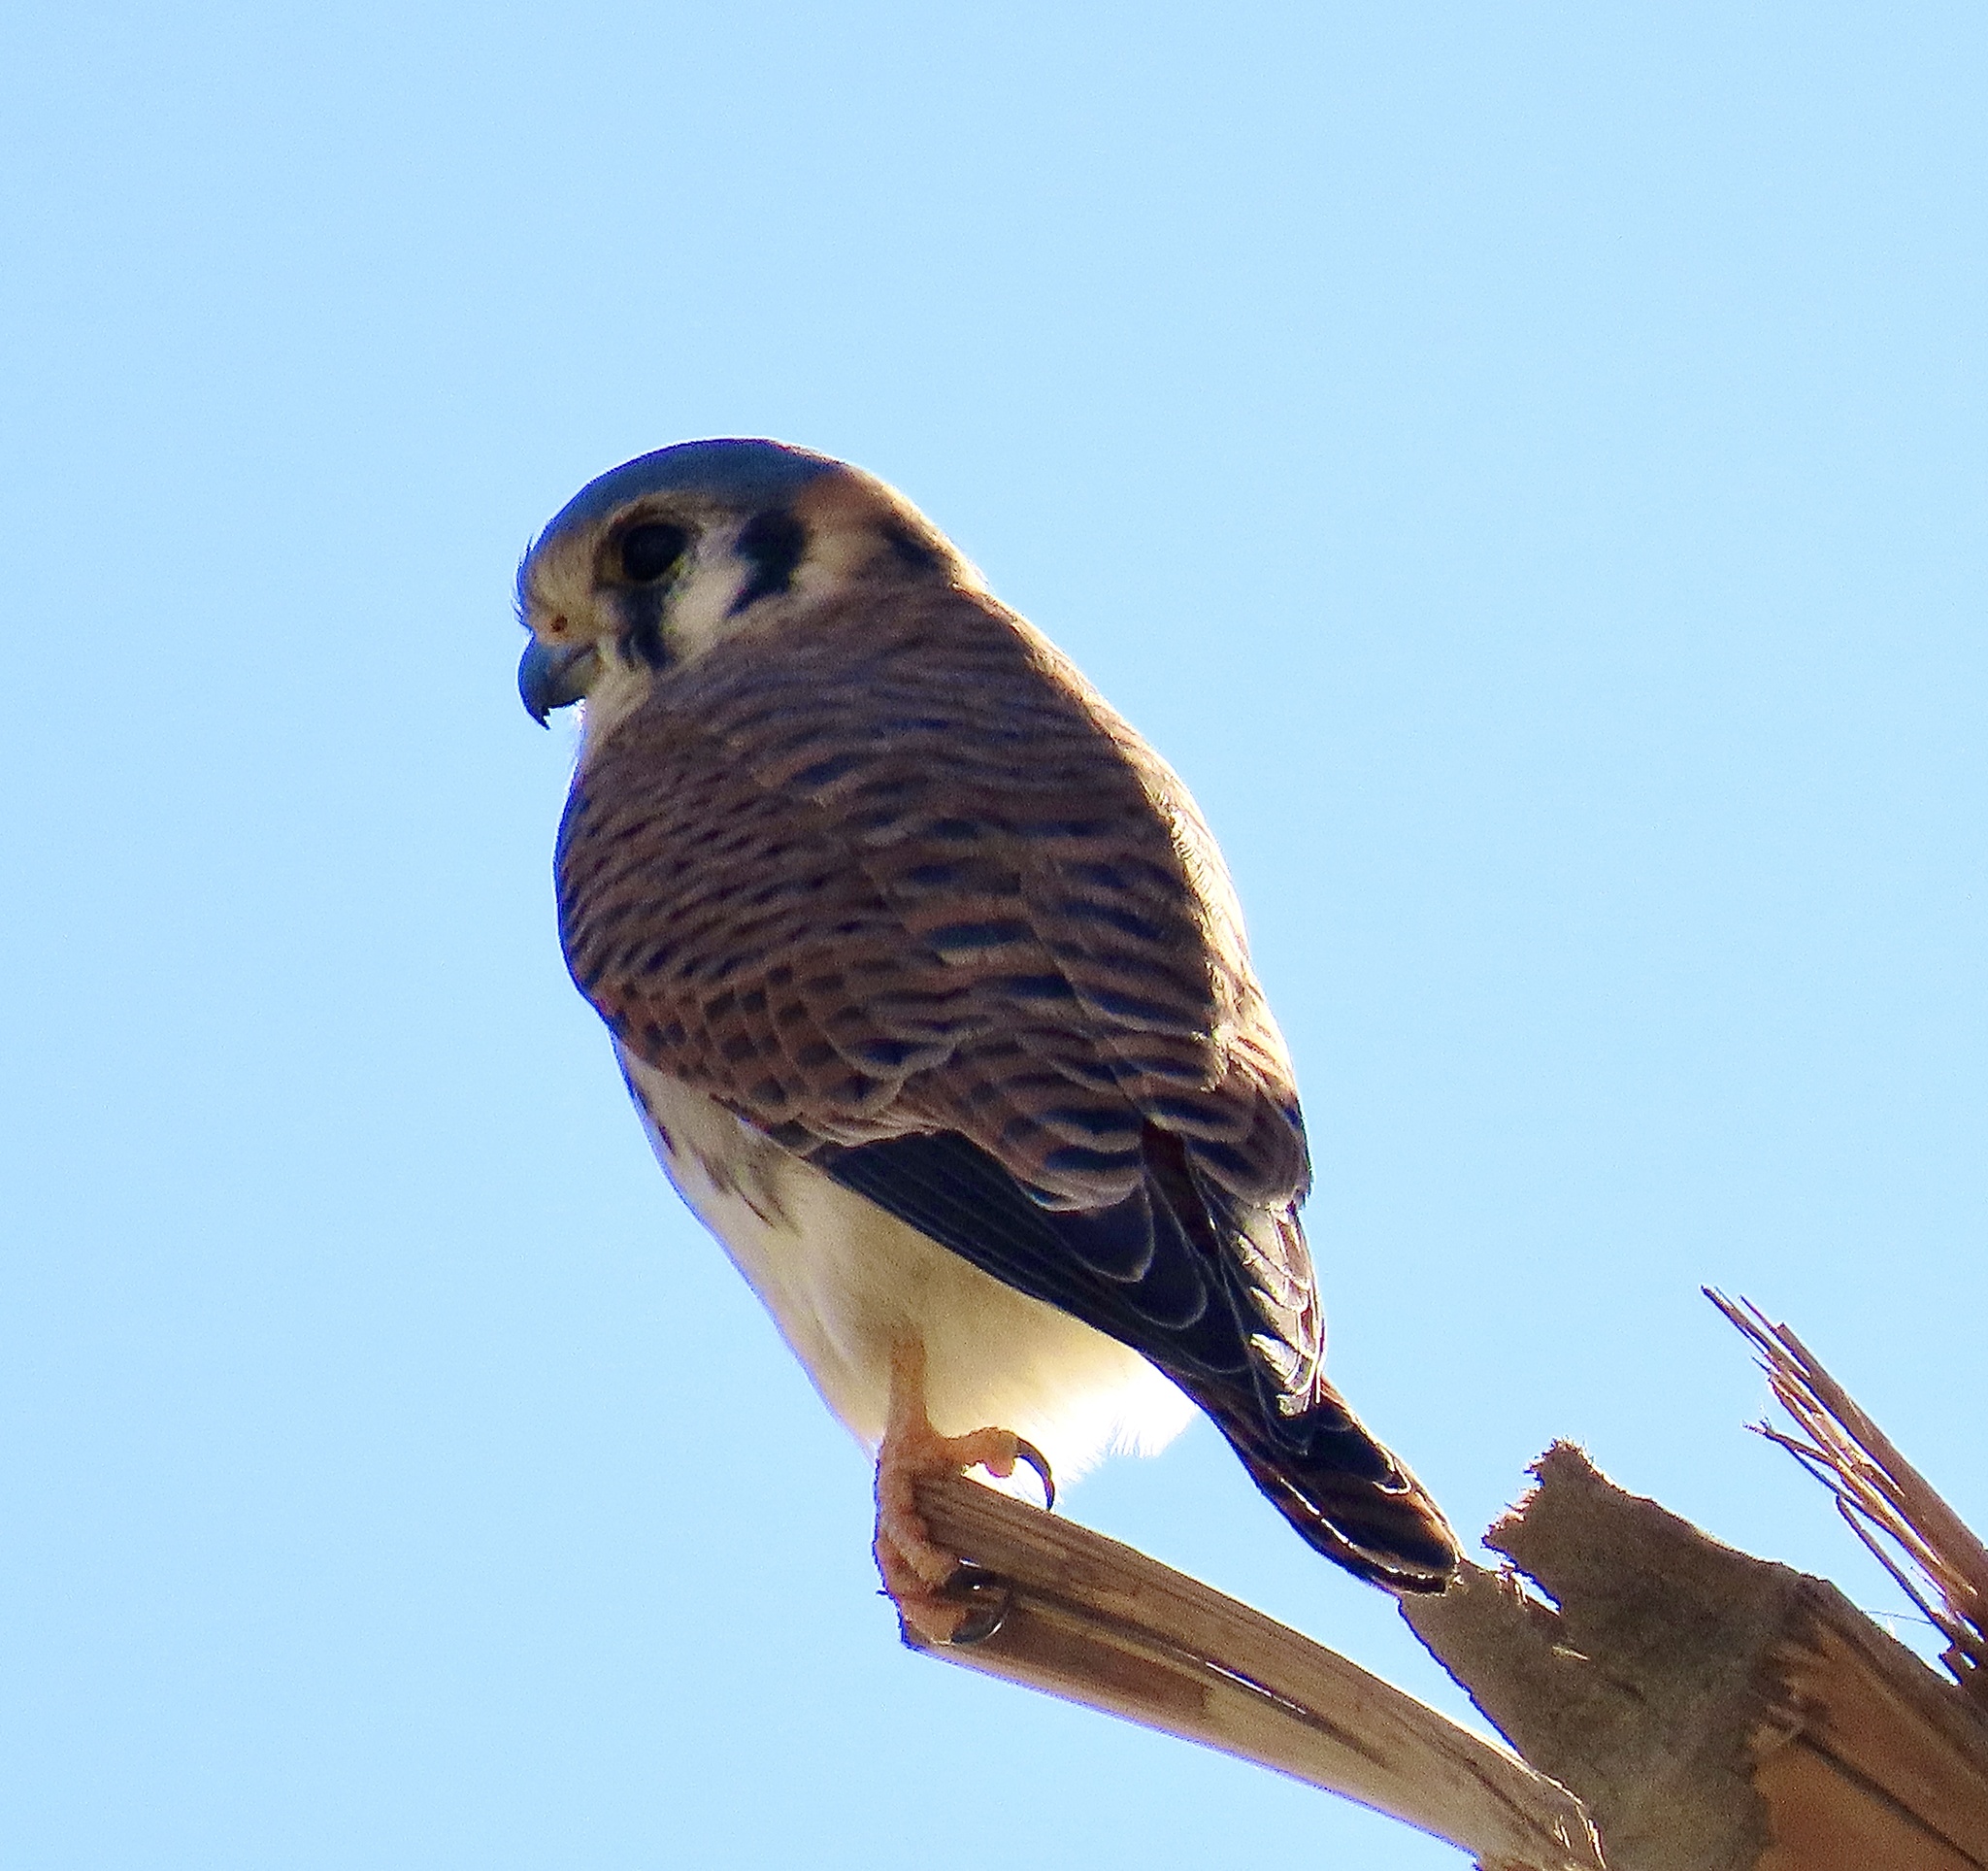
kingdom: Animalia
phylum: Chordata
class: Aves
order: Falconiformes
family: Falconidae
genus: Falco
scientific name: Falco sparverius
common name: American kestrel
